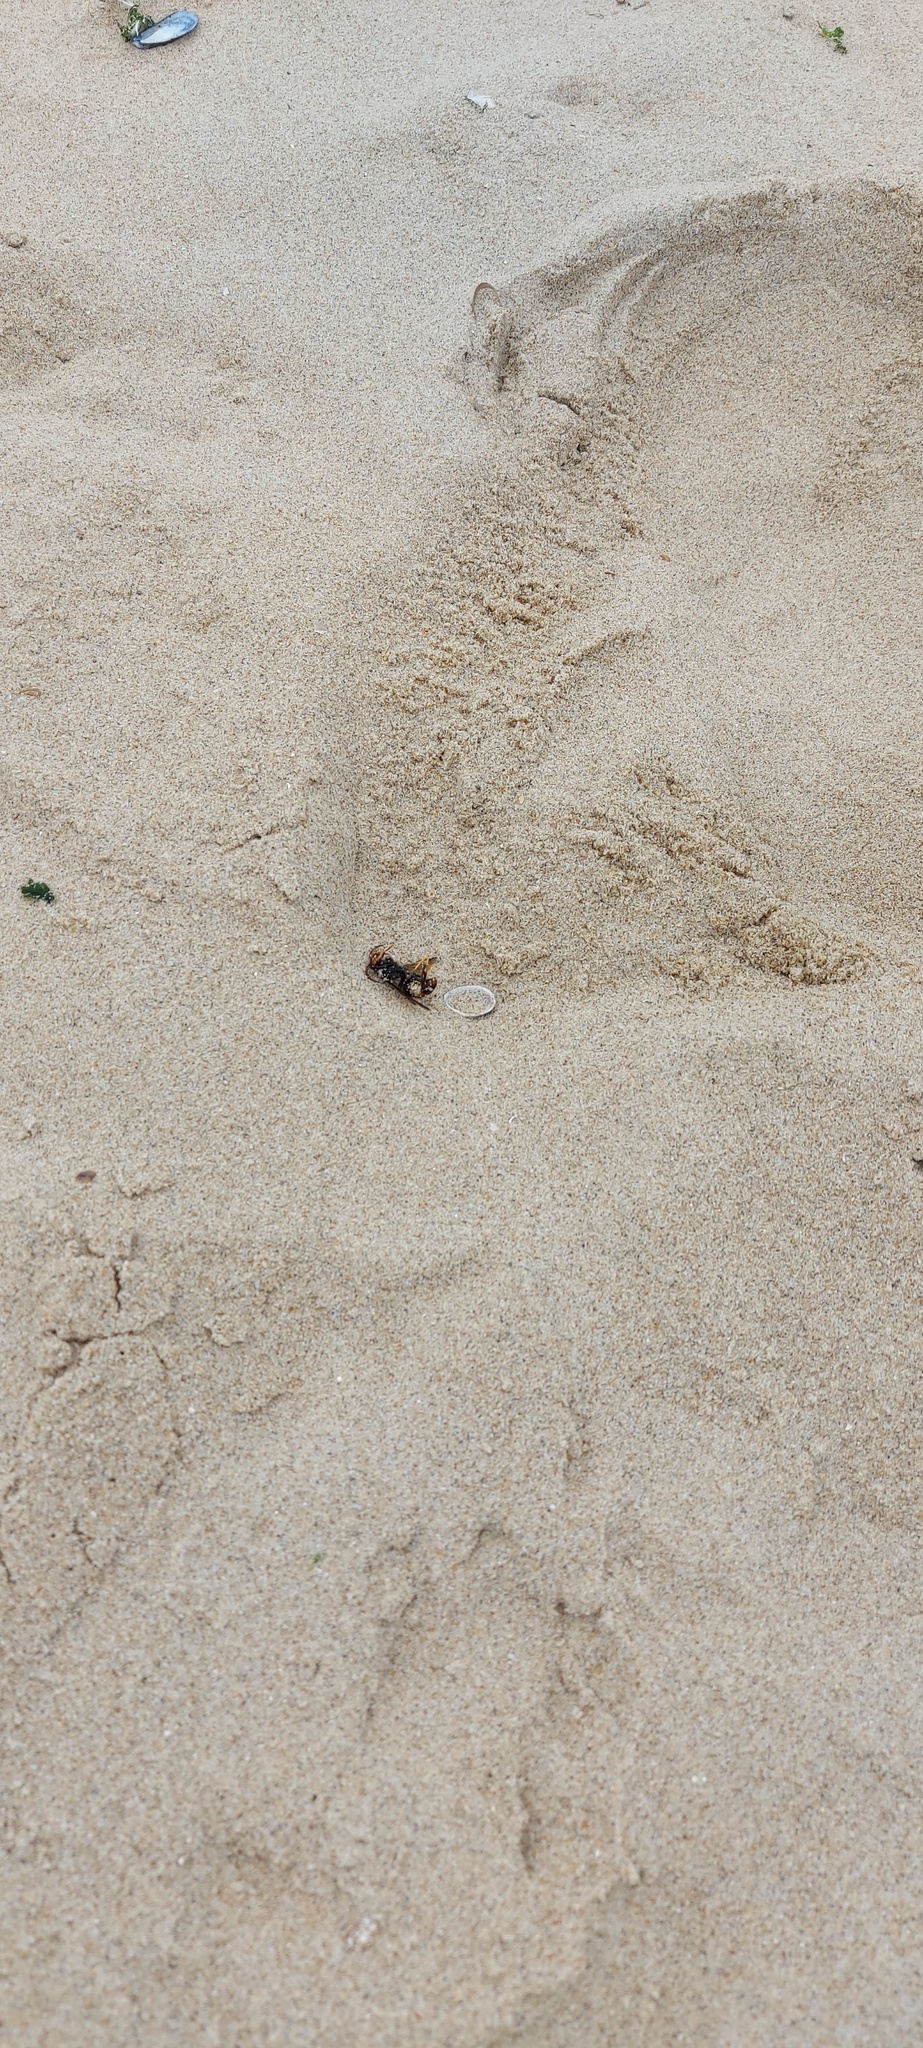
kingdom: Animalia
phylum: Arthropoda
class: Insecta
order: Hymenoptera
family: Vespidae
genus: Vespa
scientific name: Vespa velutina
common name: Asian hornet
